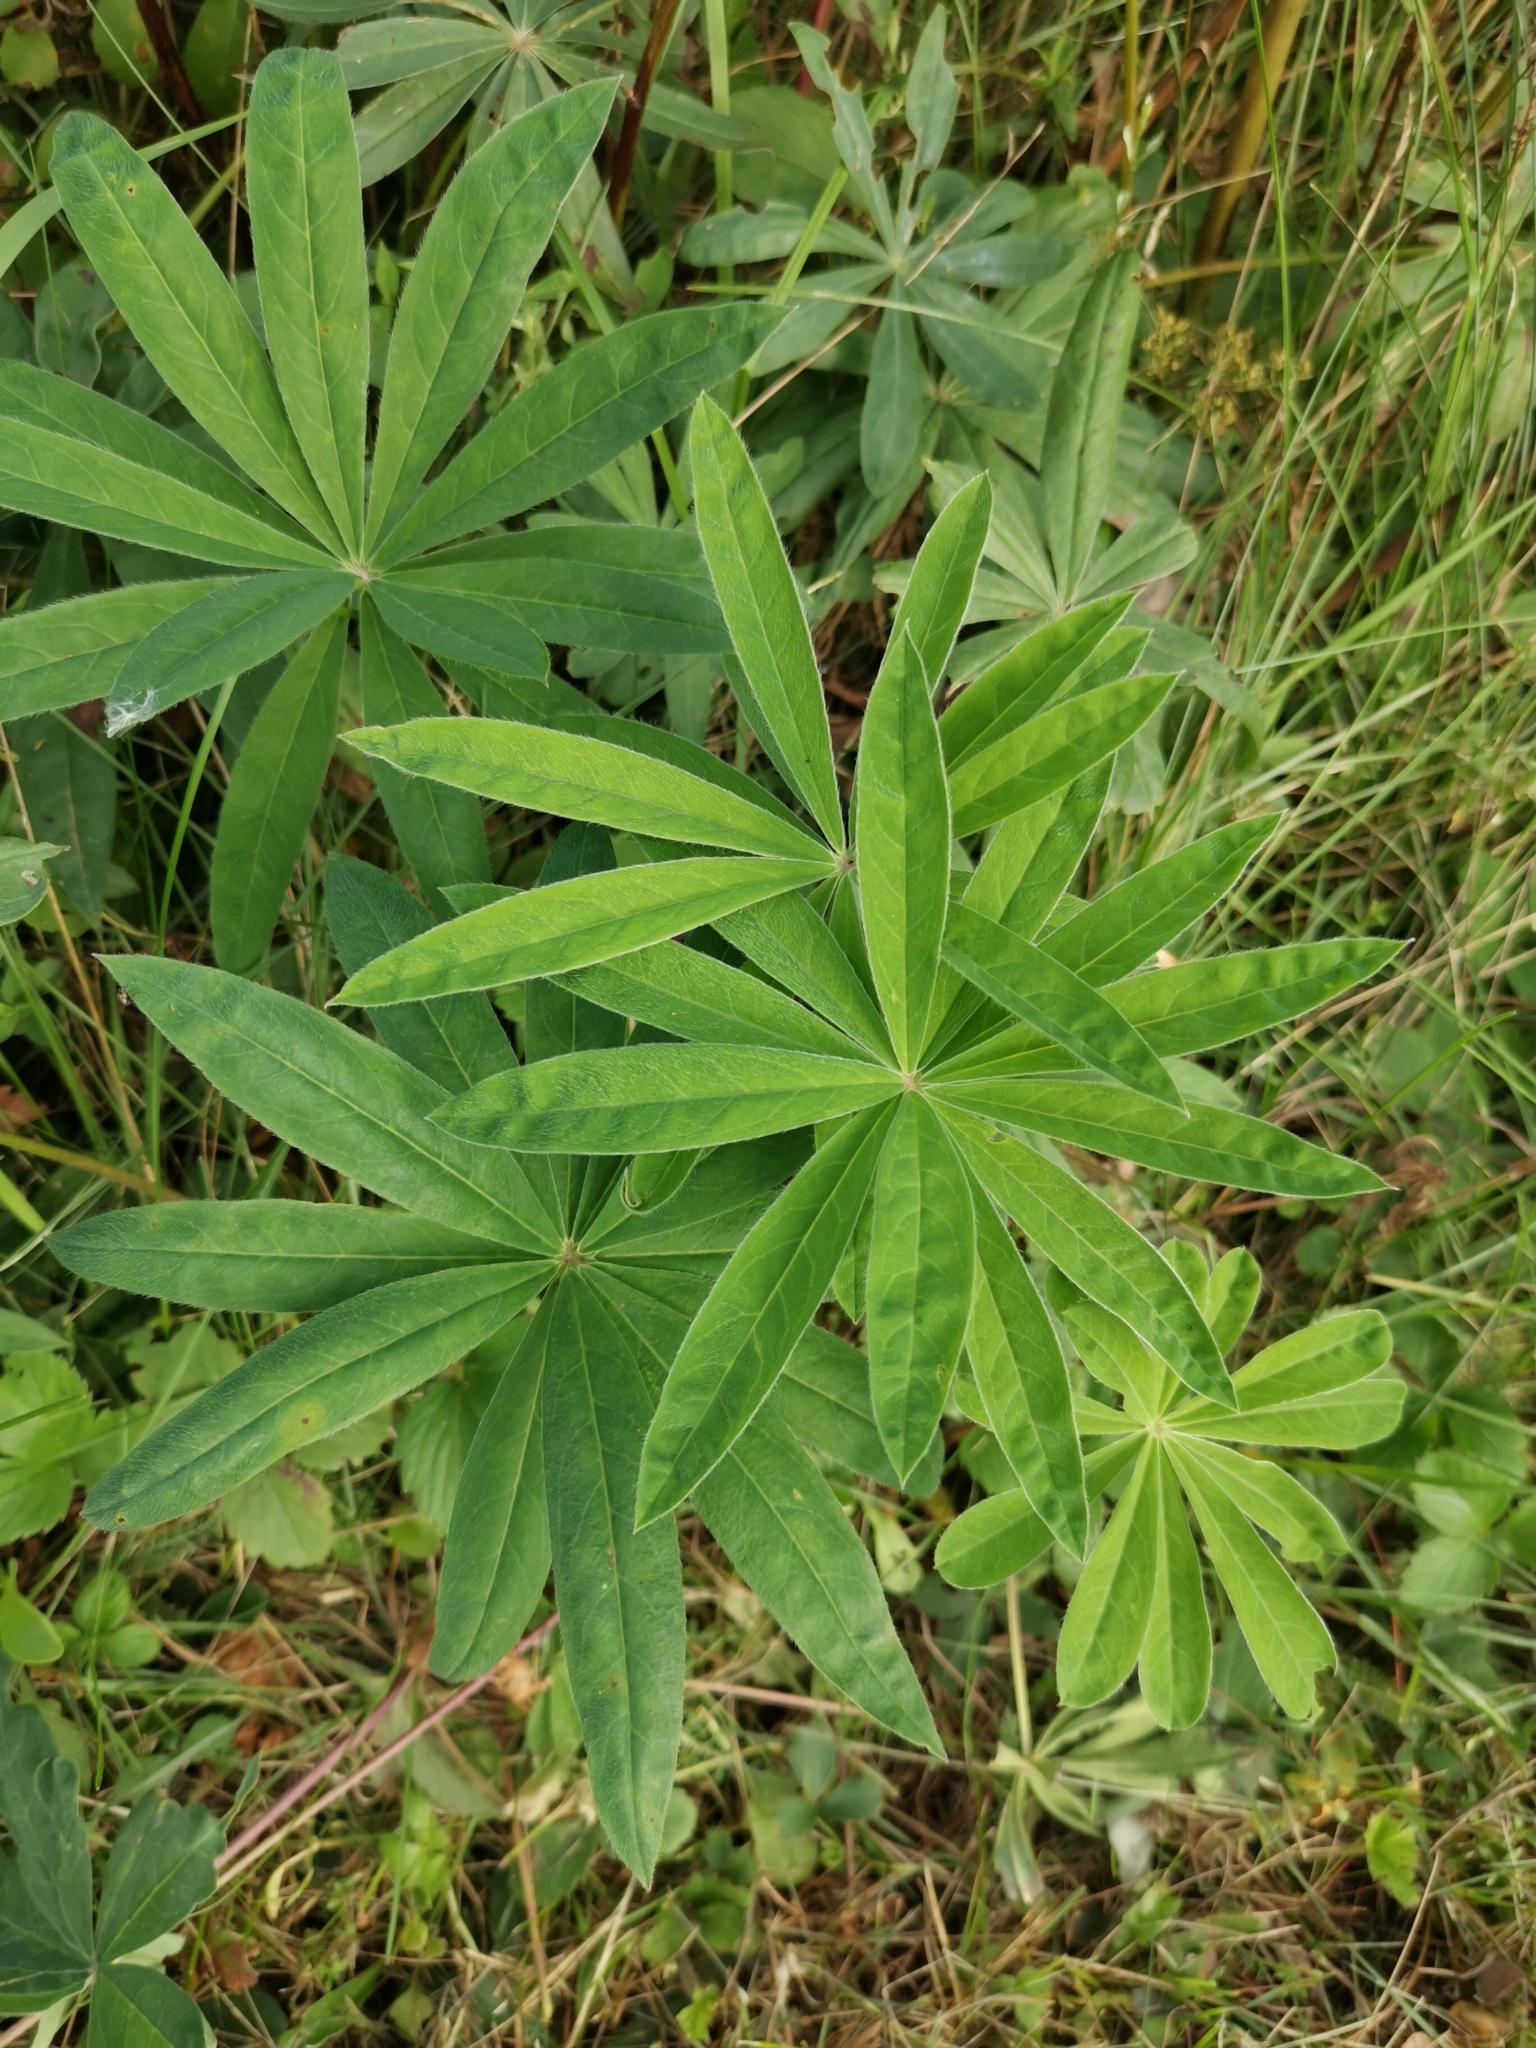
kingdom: Plantae
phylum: Tracheophyta
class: Magnoliopsida
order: Fabales
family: Fabaceae
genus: Lupinus
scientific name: Lupinus polyphyllus
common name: Garden lupin
